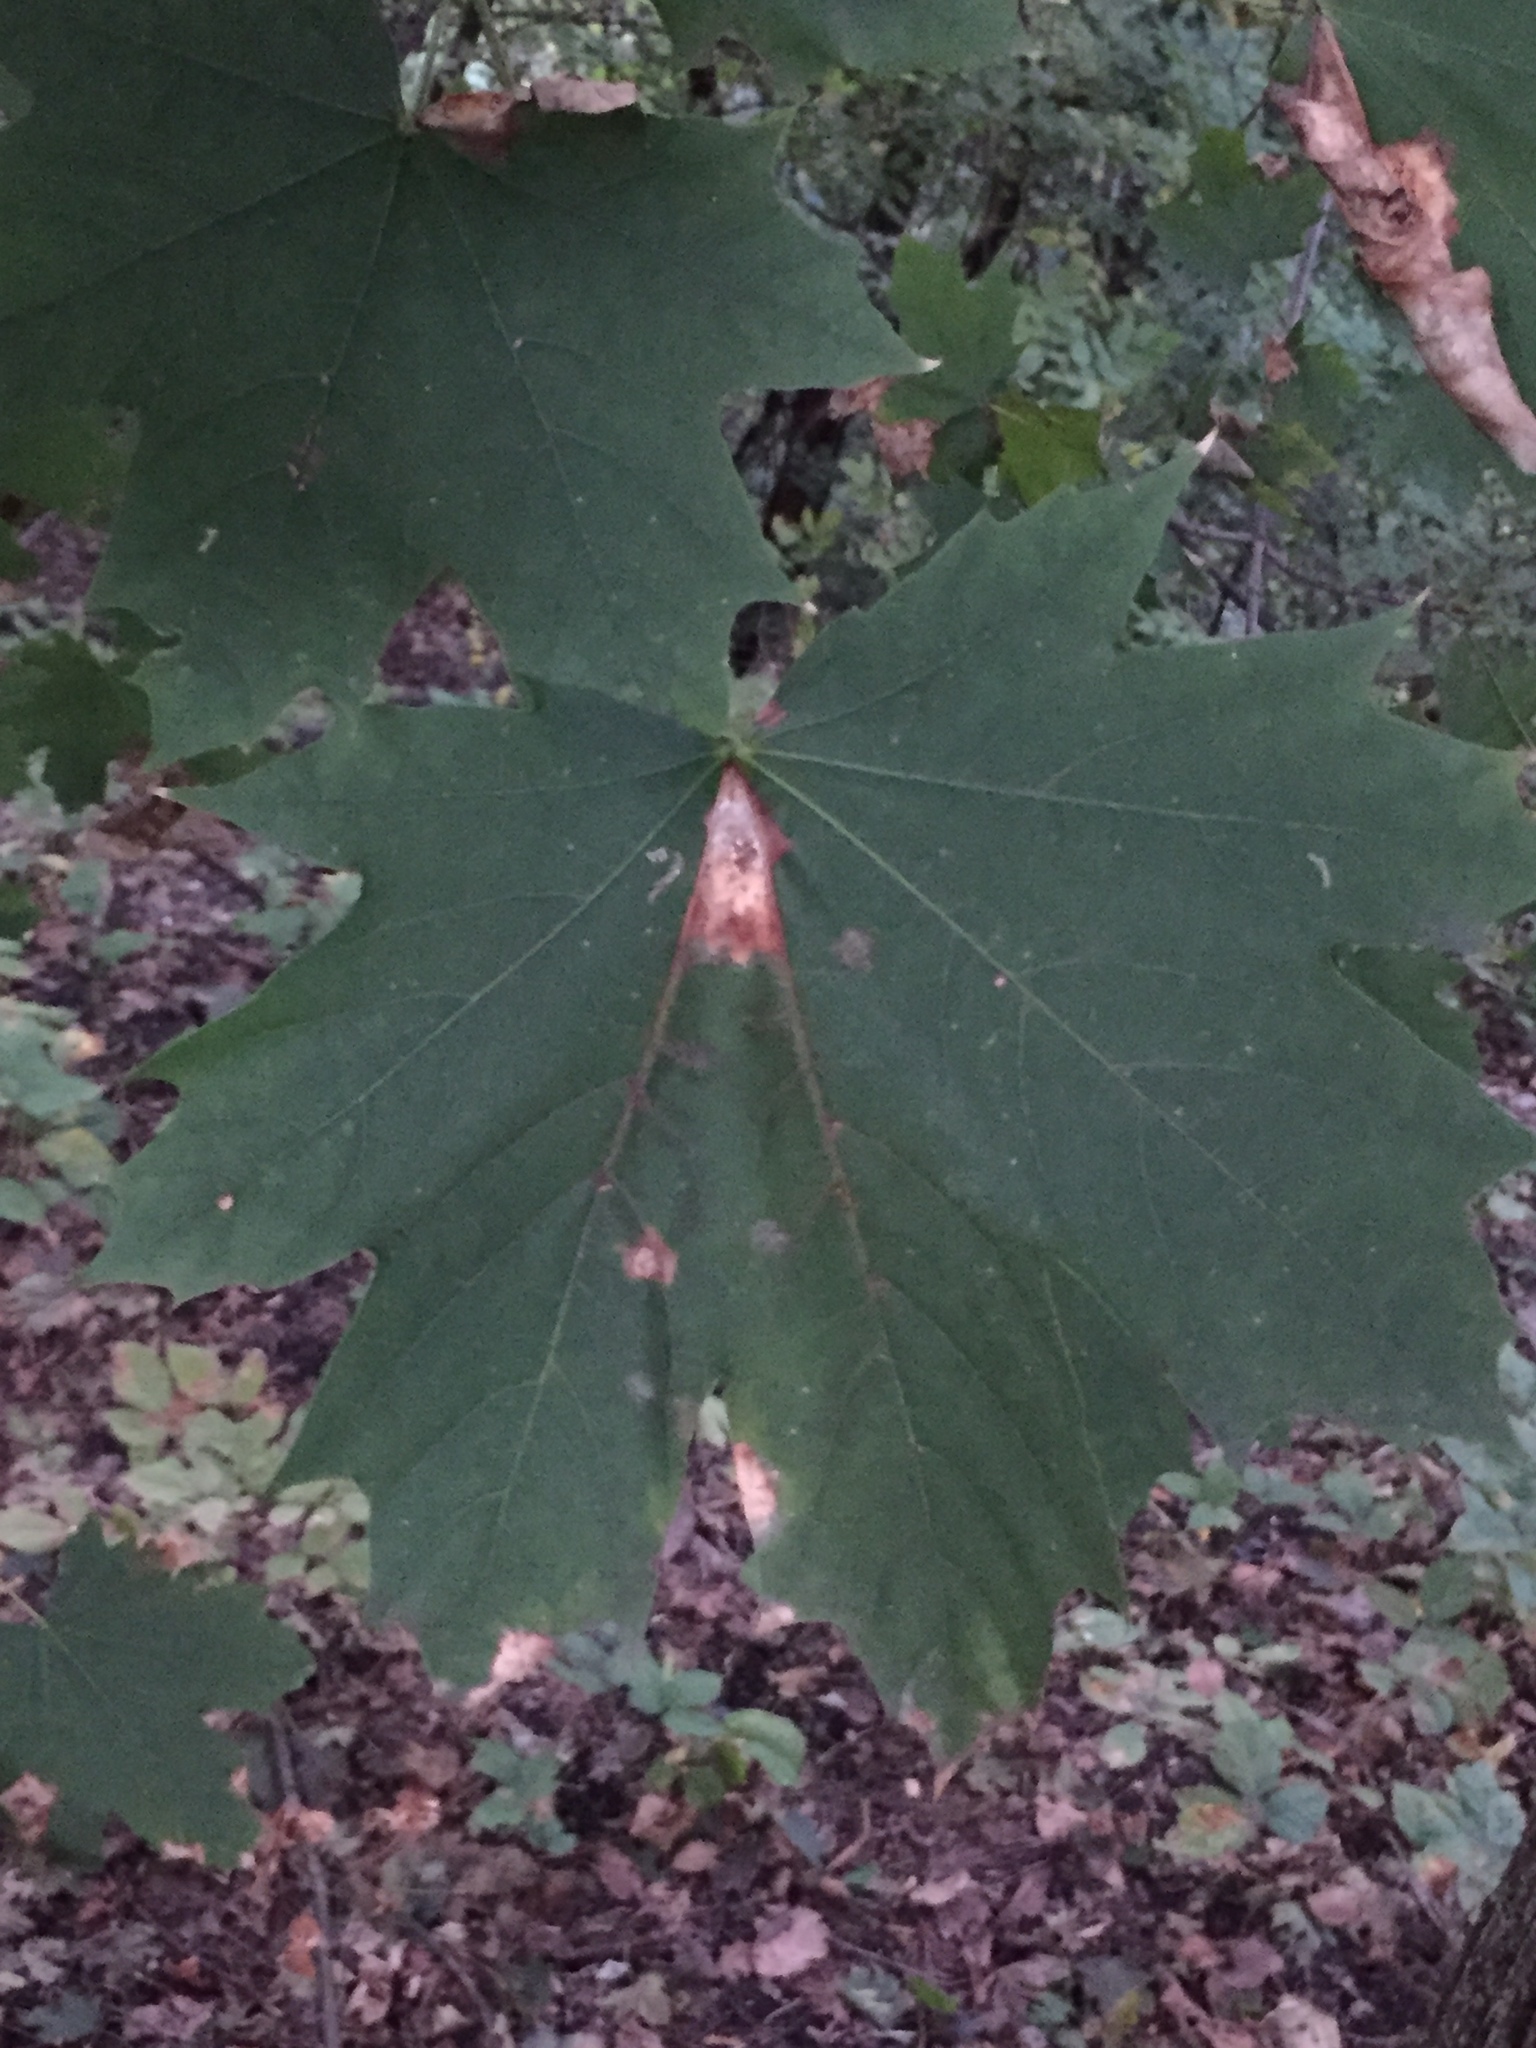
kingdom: Plantae
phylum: Tracheophyta
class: Magnoliopsida
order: Sapindales
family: Sapindaceae
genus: Acer
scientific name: Acer platanoides
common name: Norway maple
